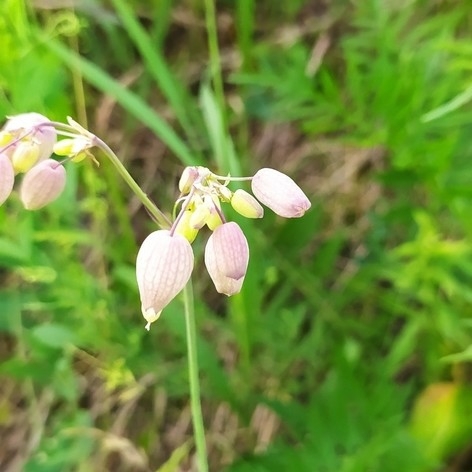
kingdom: Plantae
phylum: Tracheophyta
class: Magnoliopsida
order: Caryophyllales
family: Caryophyllaceae
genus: Silene
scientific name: Silene vulgaris
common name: Bladder campion
